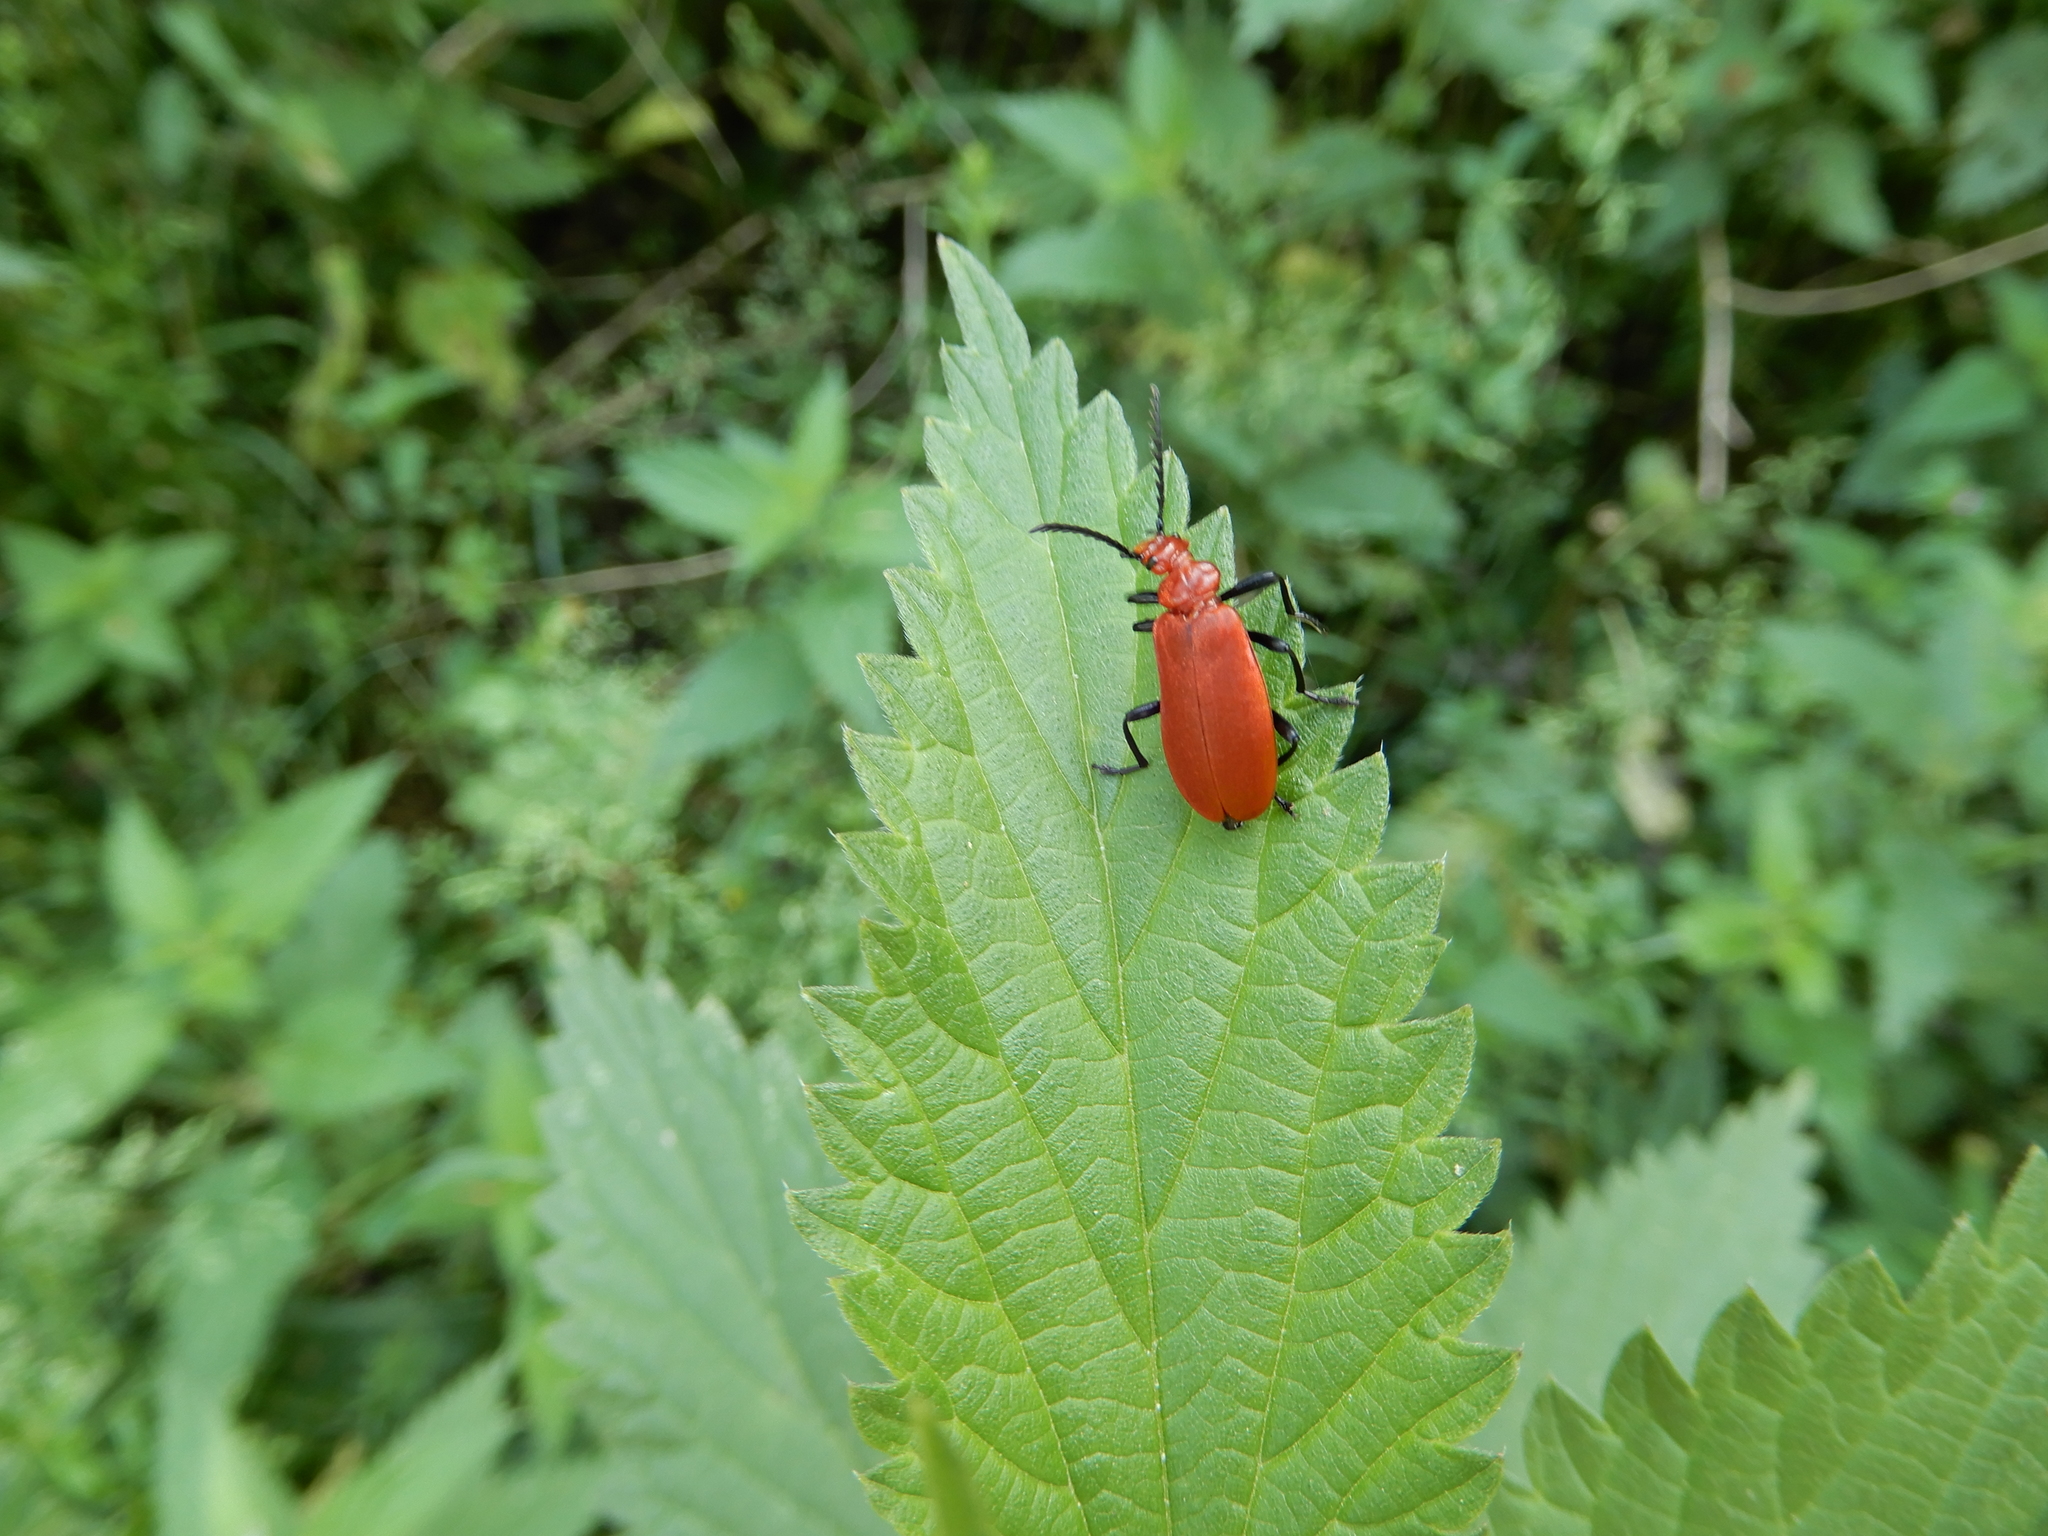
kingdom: Animalia
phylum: Arthropoda
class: Insecta
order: Coleoptera
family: Pyrochroidae
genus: Pyrochroa
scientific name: Pyrochroa serraticornis
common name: Red-headed cardinal beetle
